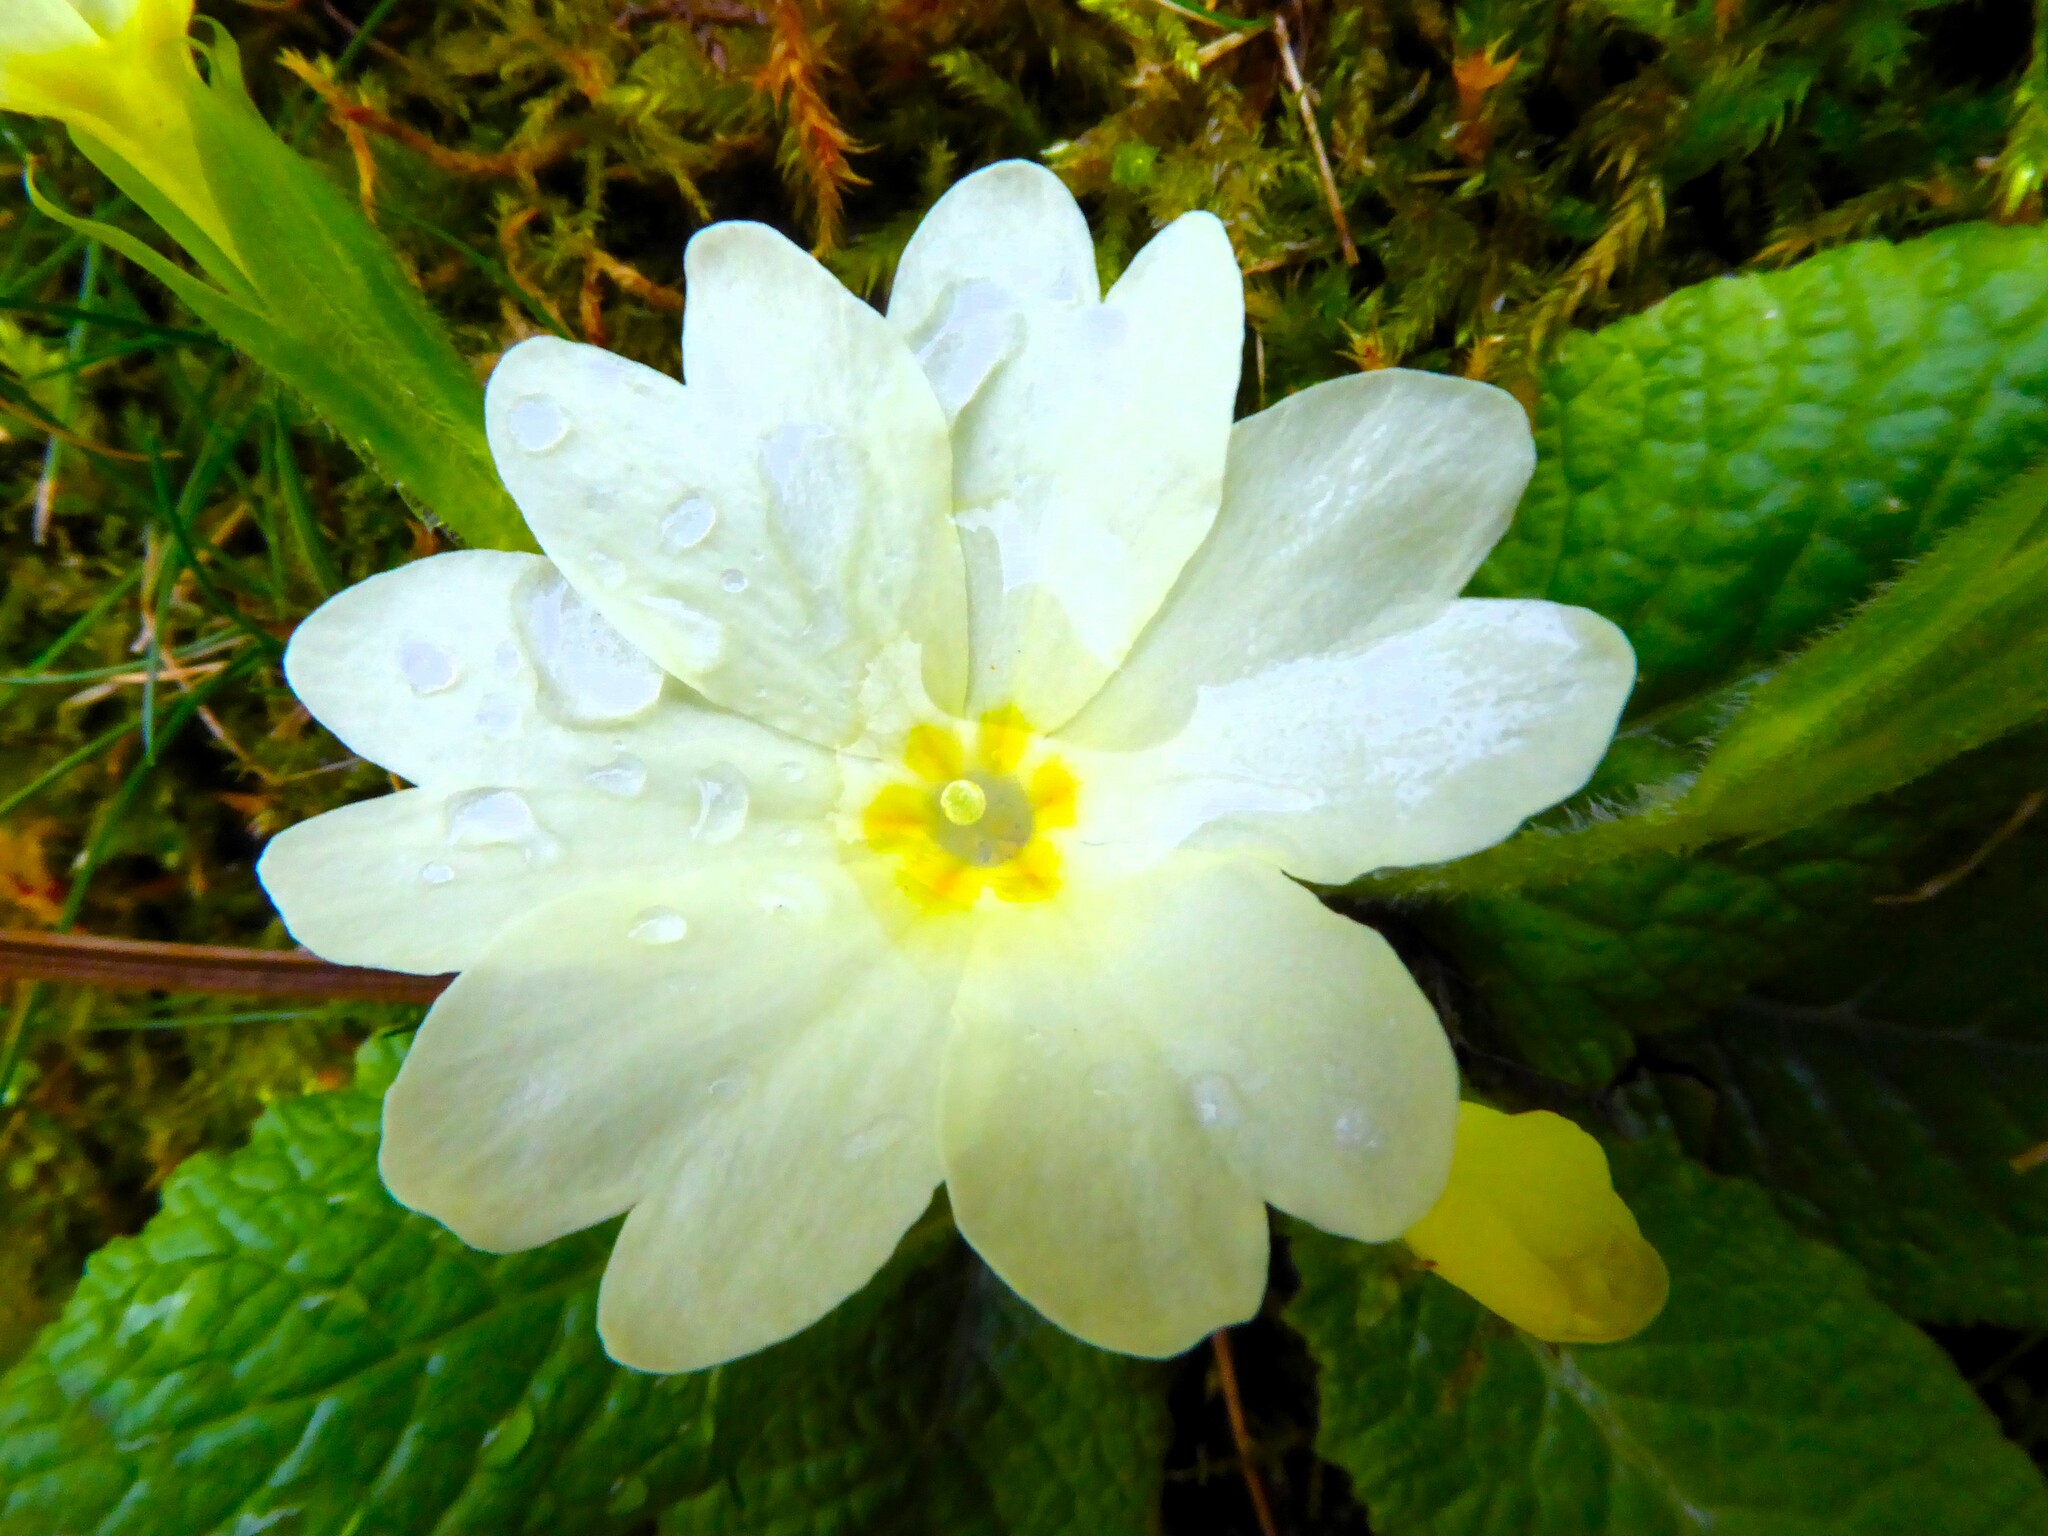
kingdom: Plantae
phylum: Tracheophyta
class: Magnoliopsida
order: Ericales
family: Primulaceae
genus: Primula
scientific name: Primula vulgaris
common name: Primrose
